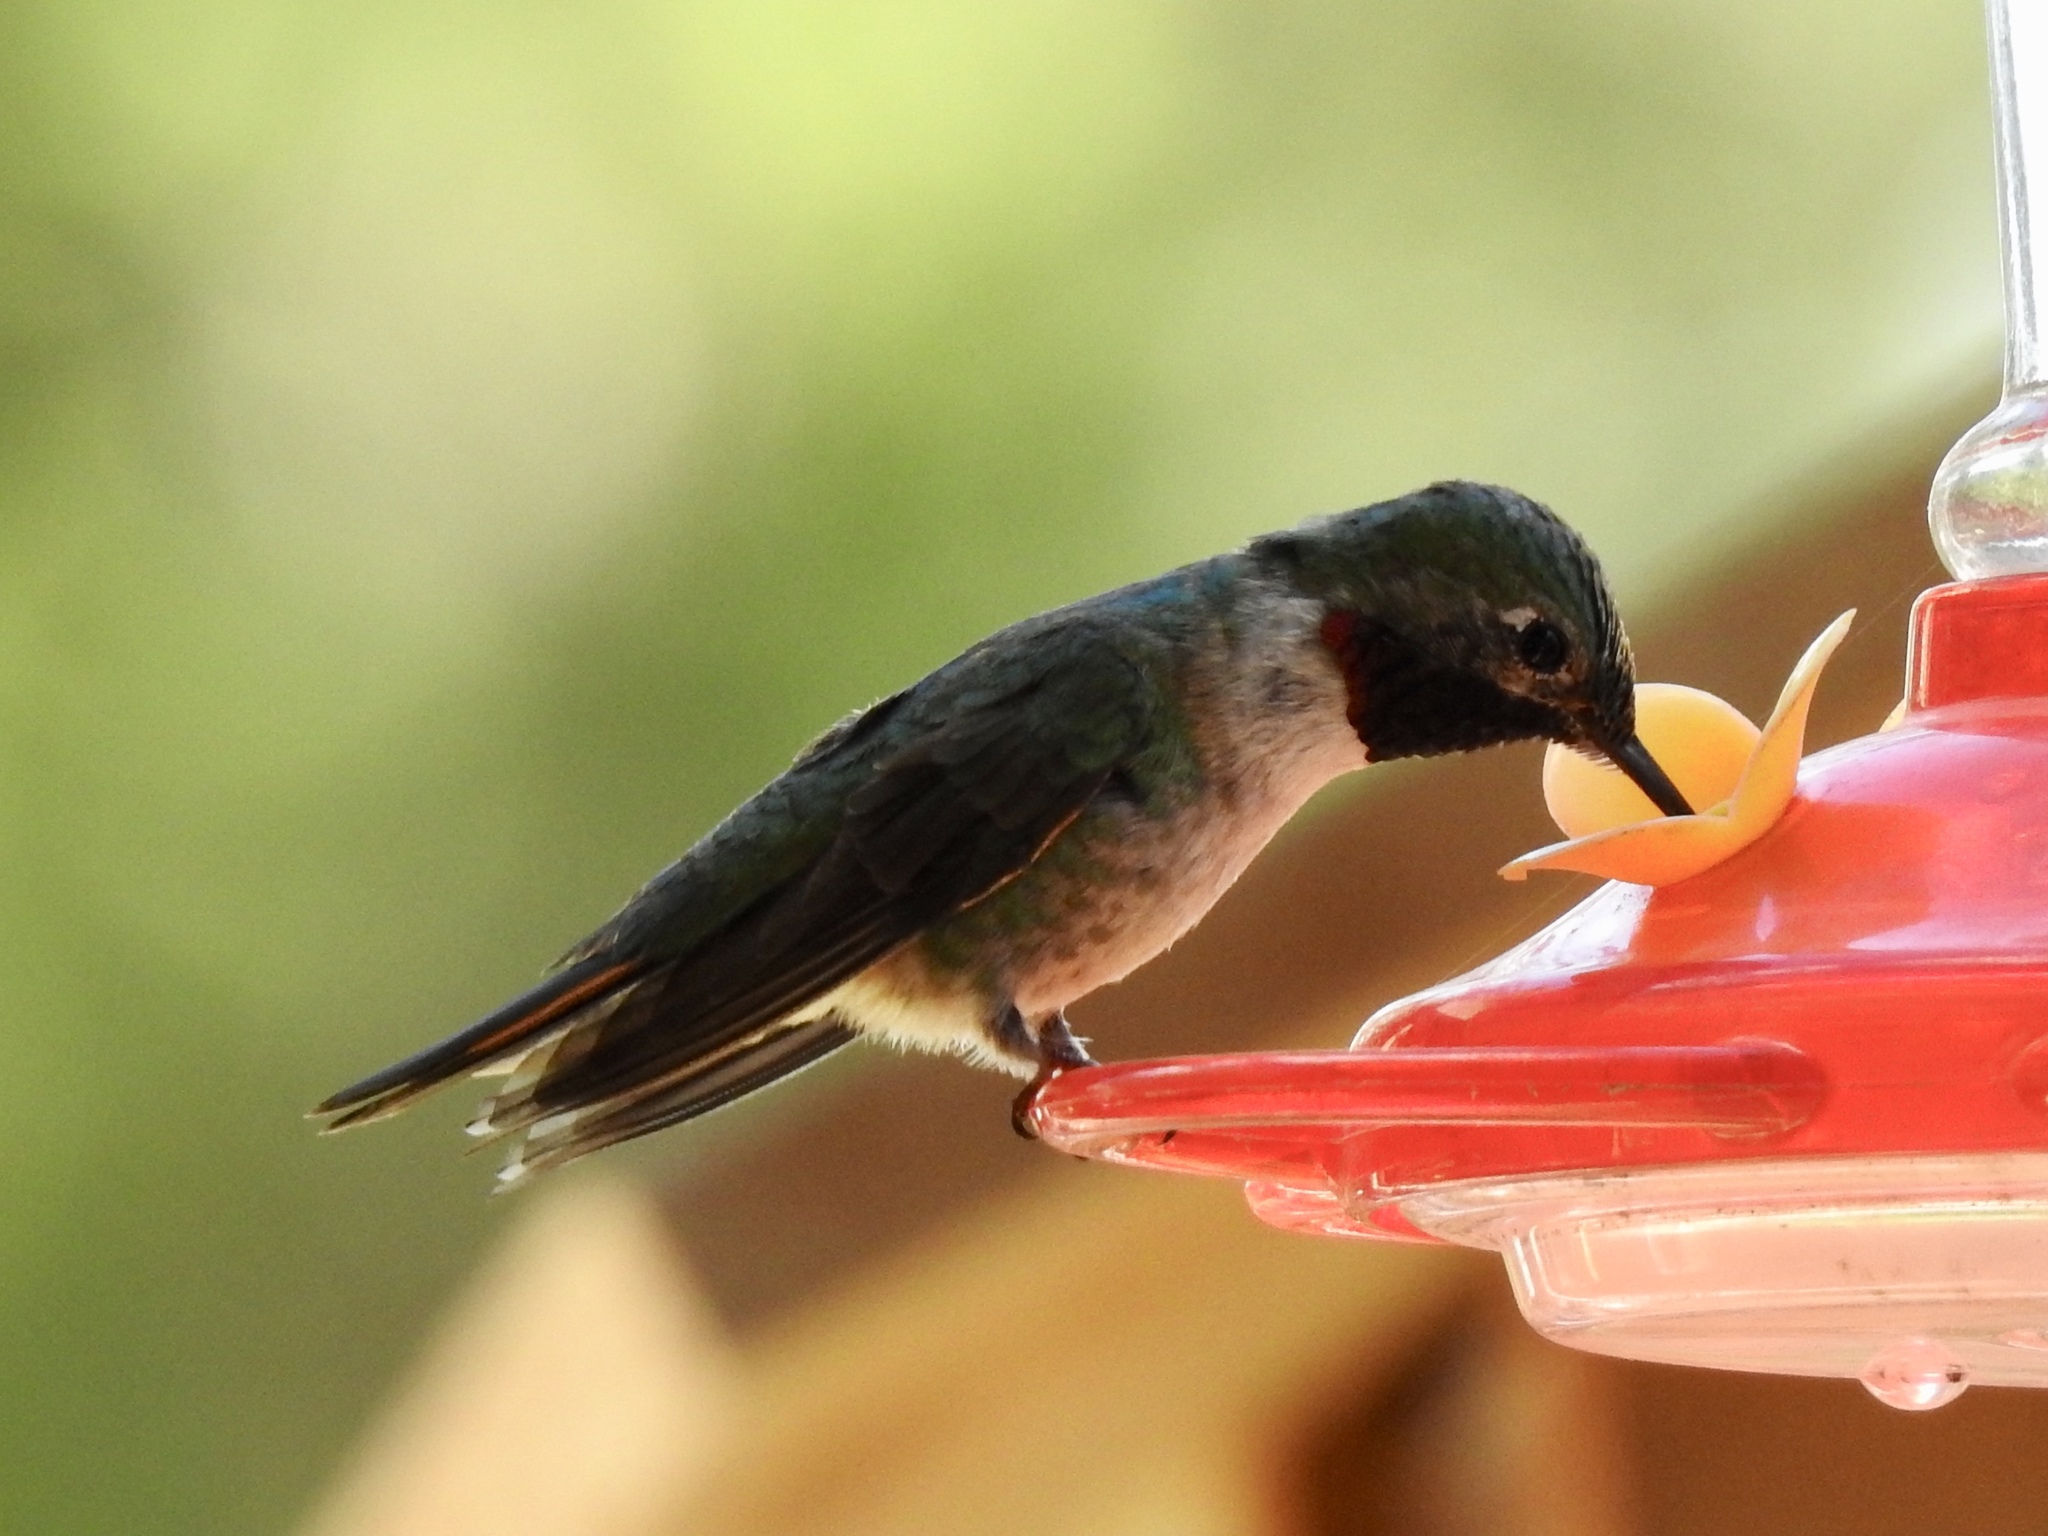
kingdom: Animalia
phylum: Chordata
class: Aves
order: Apodiformes
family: Trochilidae
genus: Selasphorus
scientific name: Selasphorus platycercus
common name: Broad-tailed hummingbird
